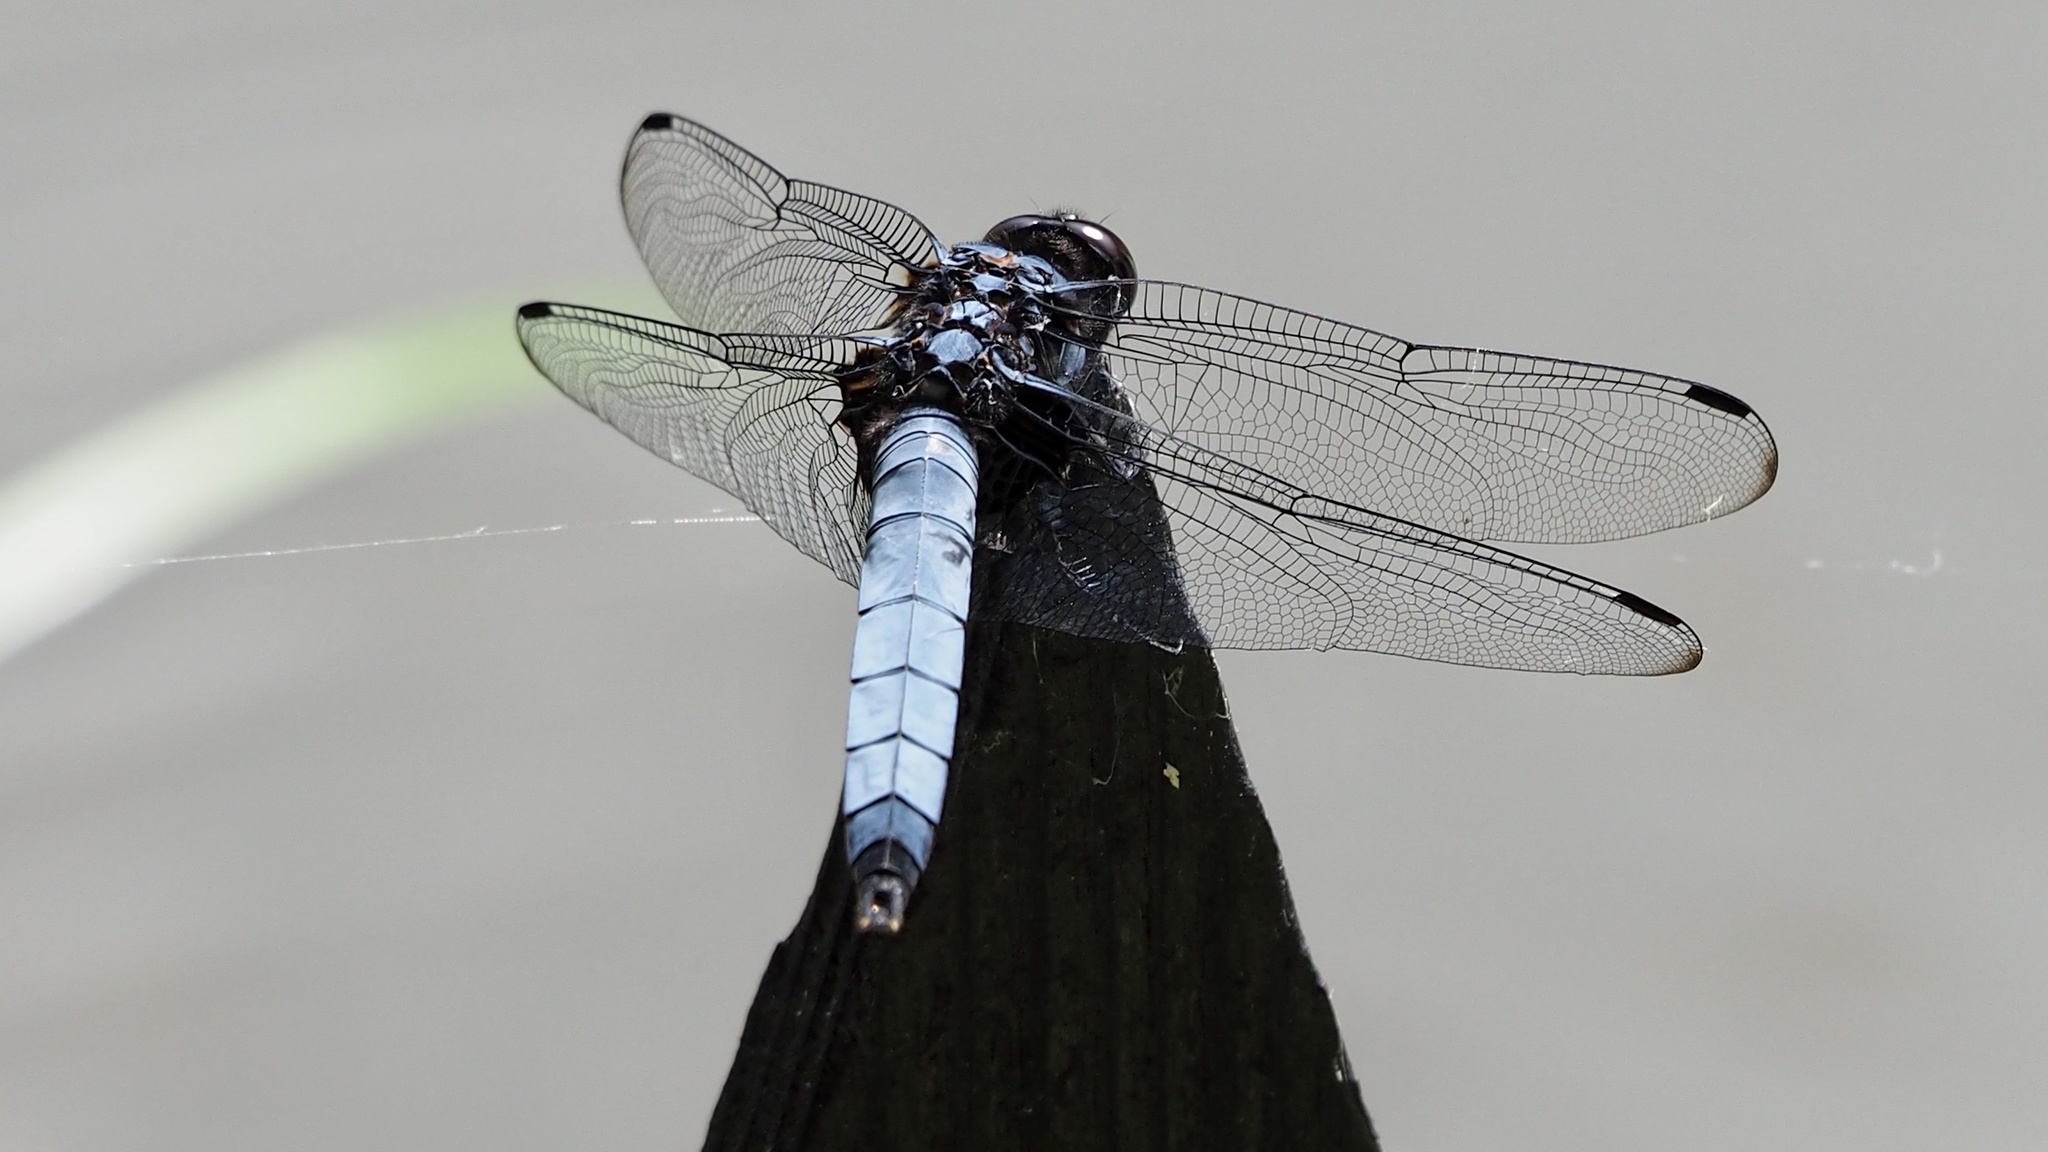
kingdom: Animalia
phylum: Arthropoda
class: Insecta
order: Odonata
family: Libellulidae
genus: Orthetrum
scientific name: Orthetrum melania
